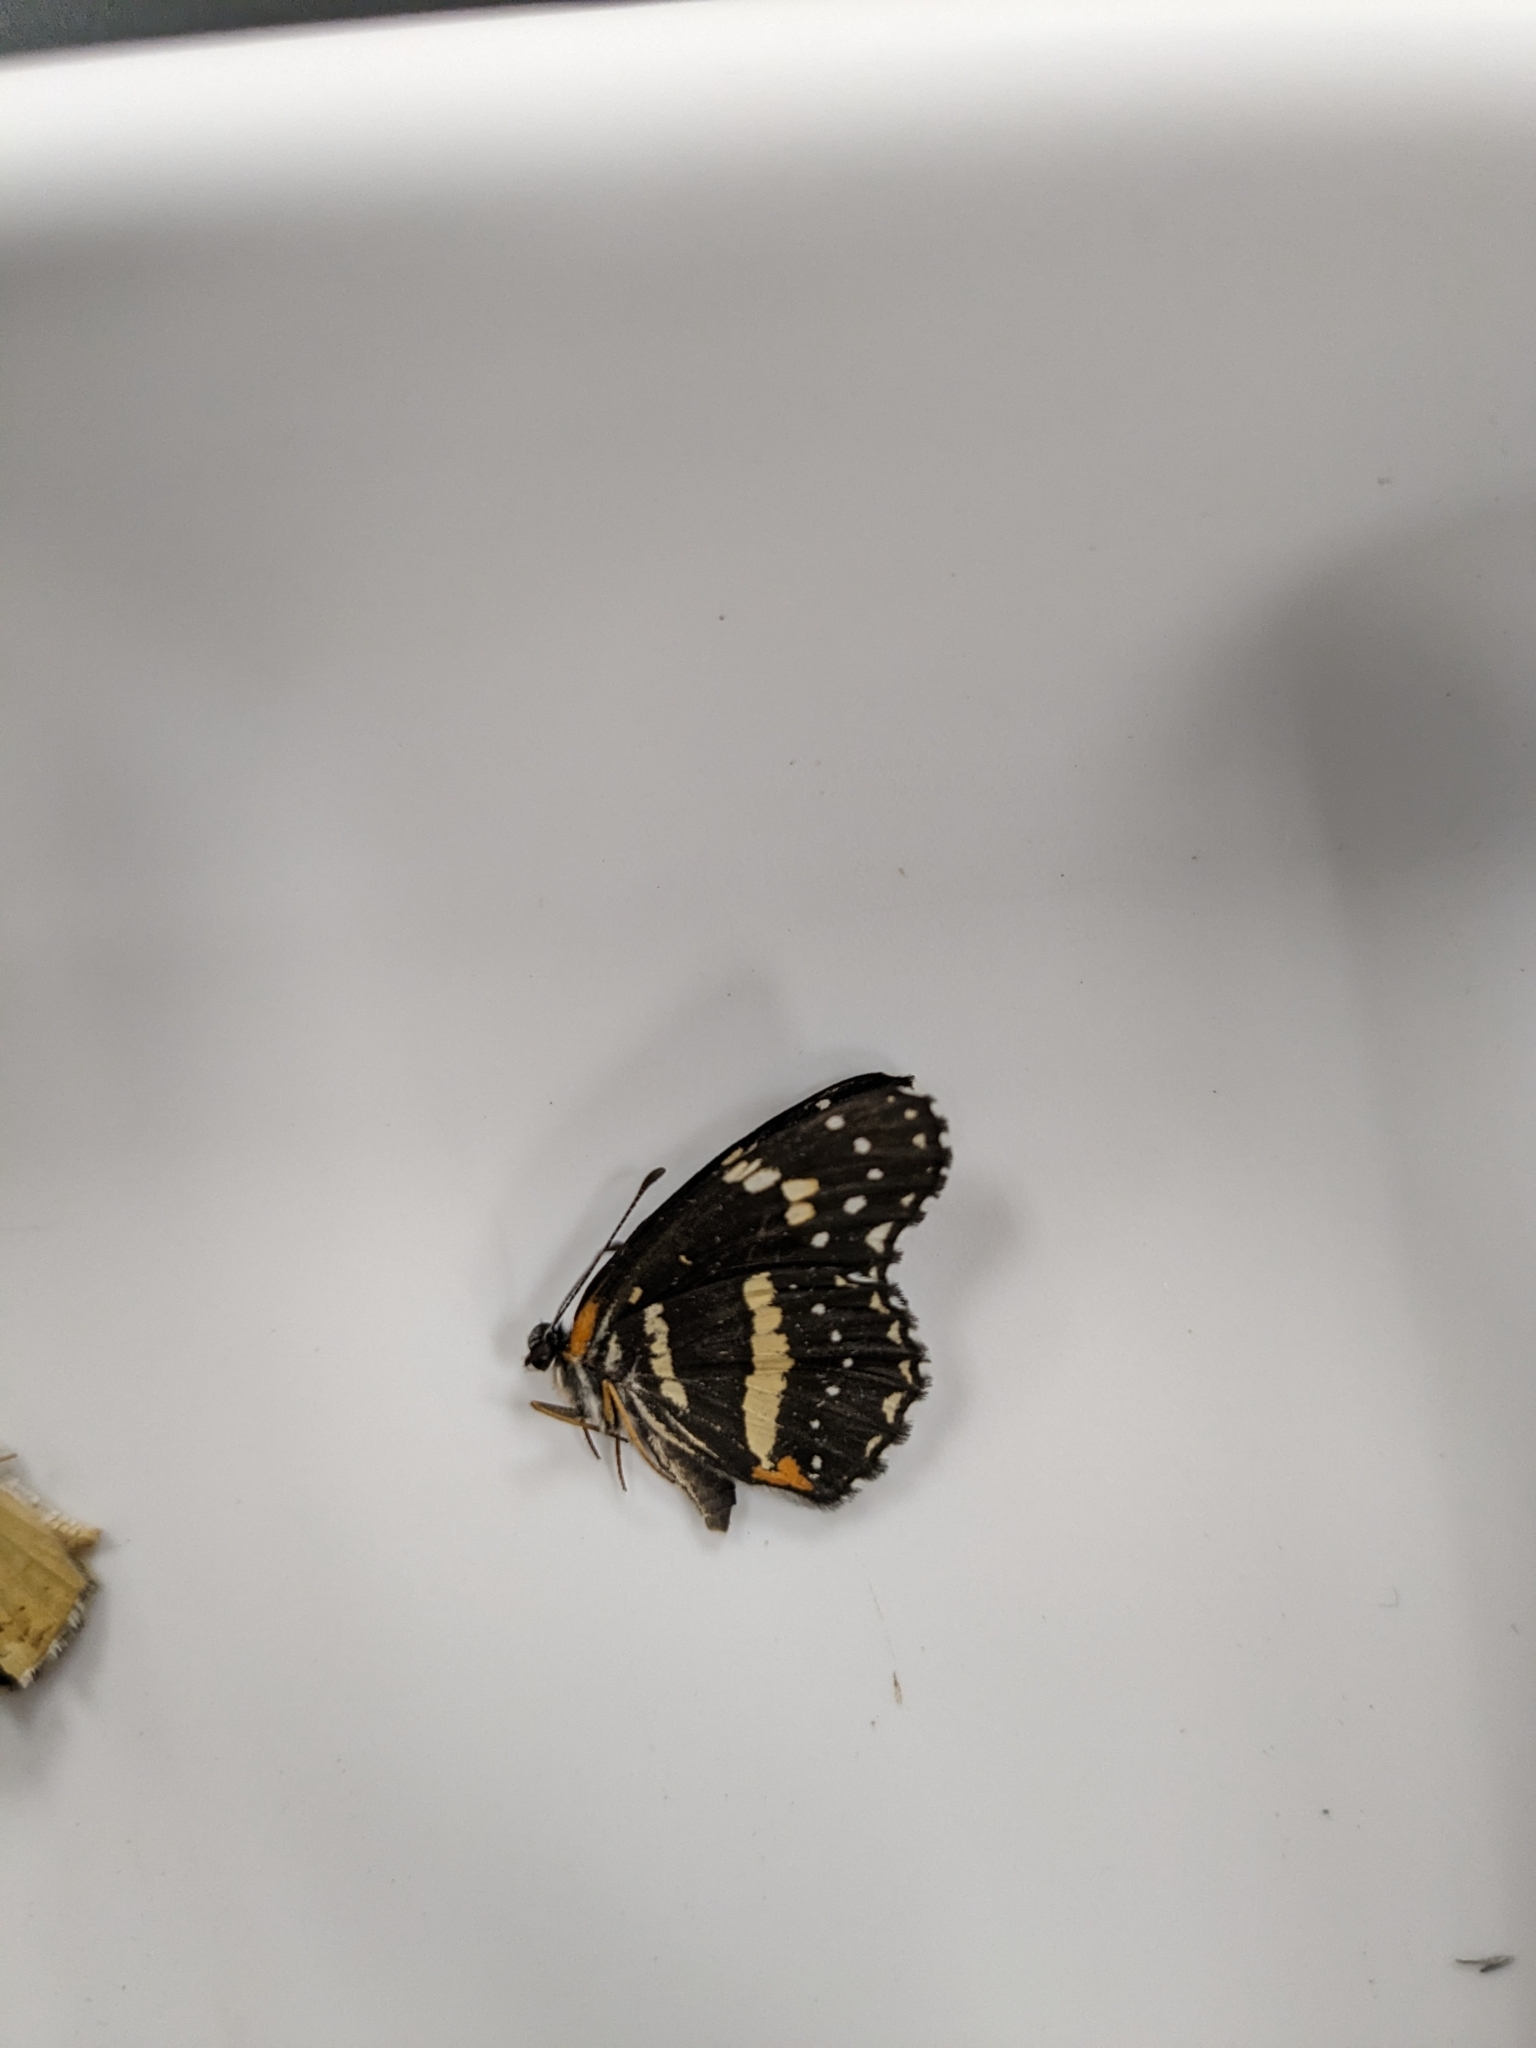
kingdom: Animalia
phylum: Arthropoda
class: Insecta
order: Lepidoptera
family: Nymphalidae
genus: Chlosyne
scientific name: Chlosyne lacinia
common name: Bordered patch
